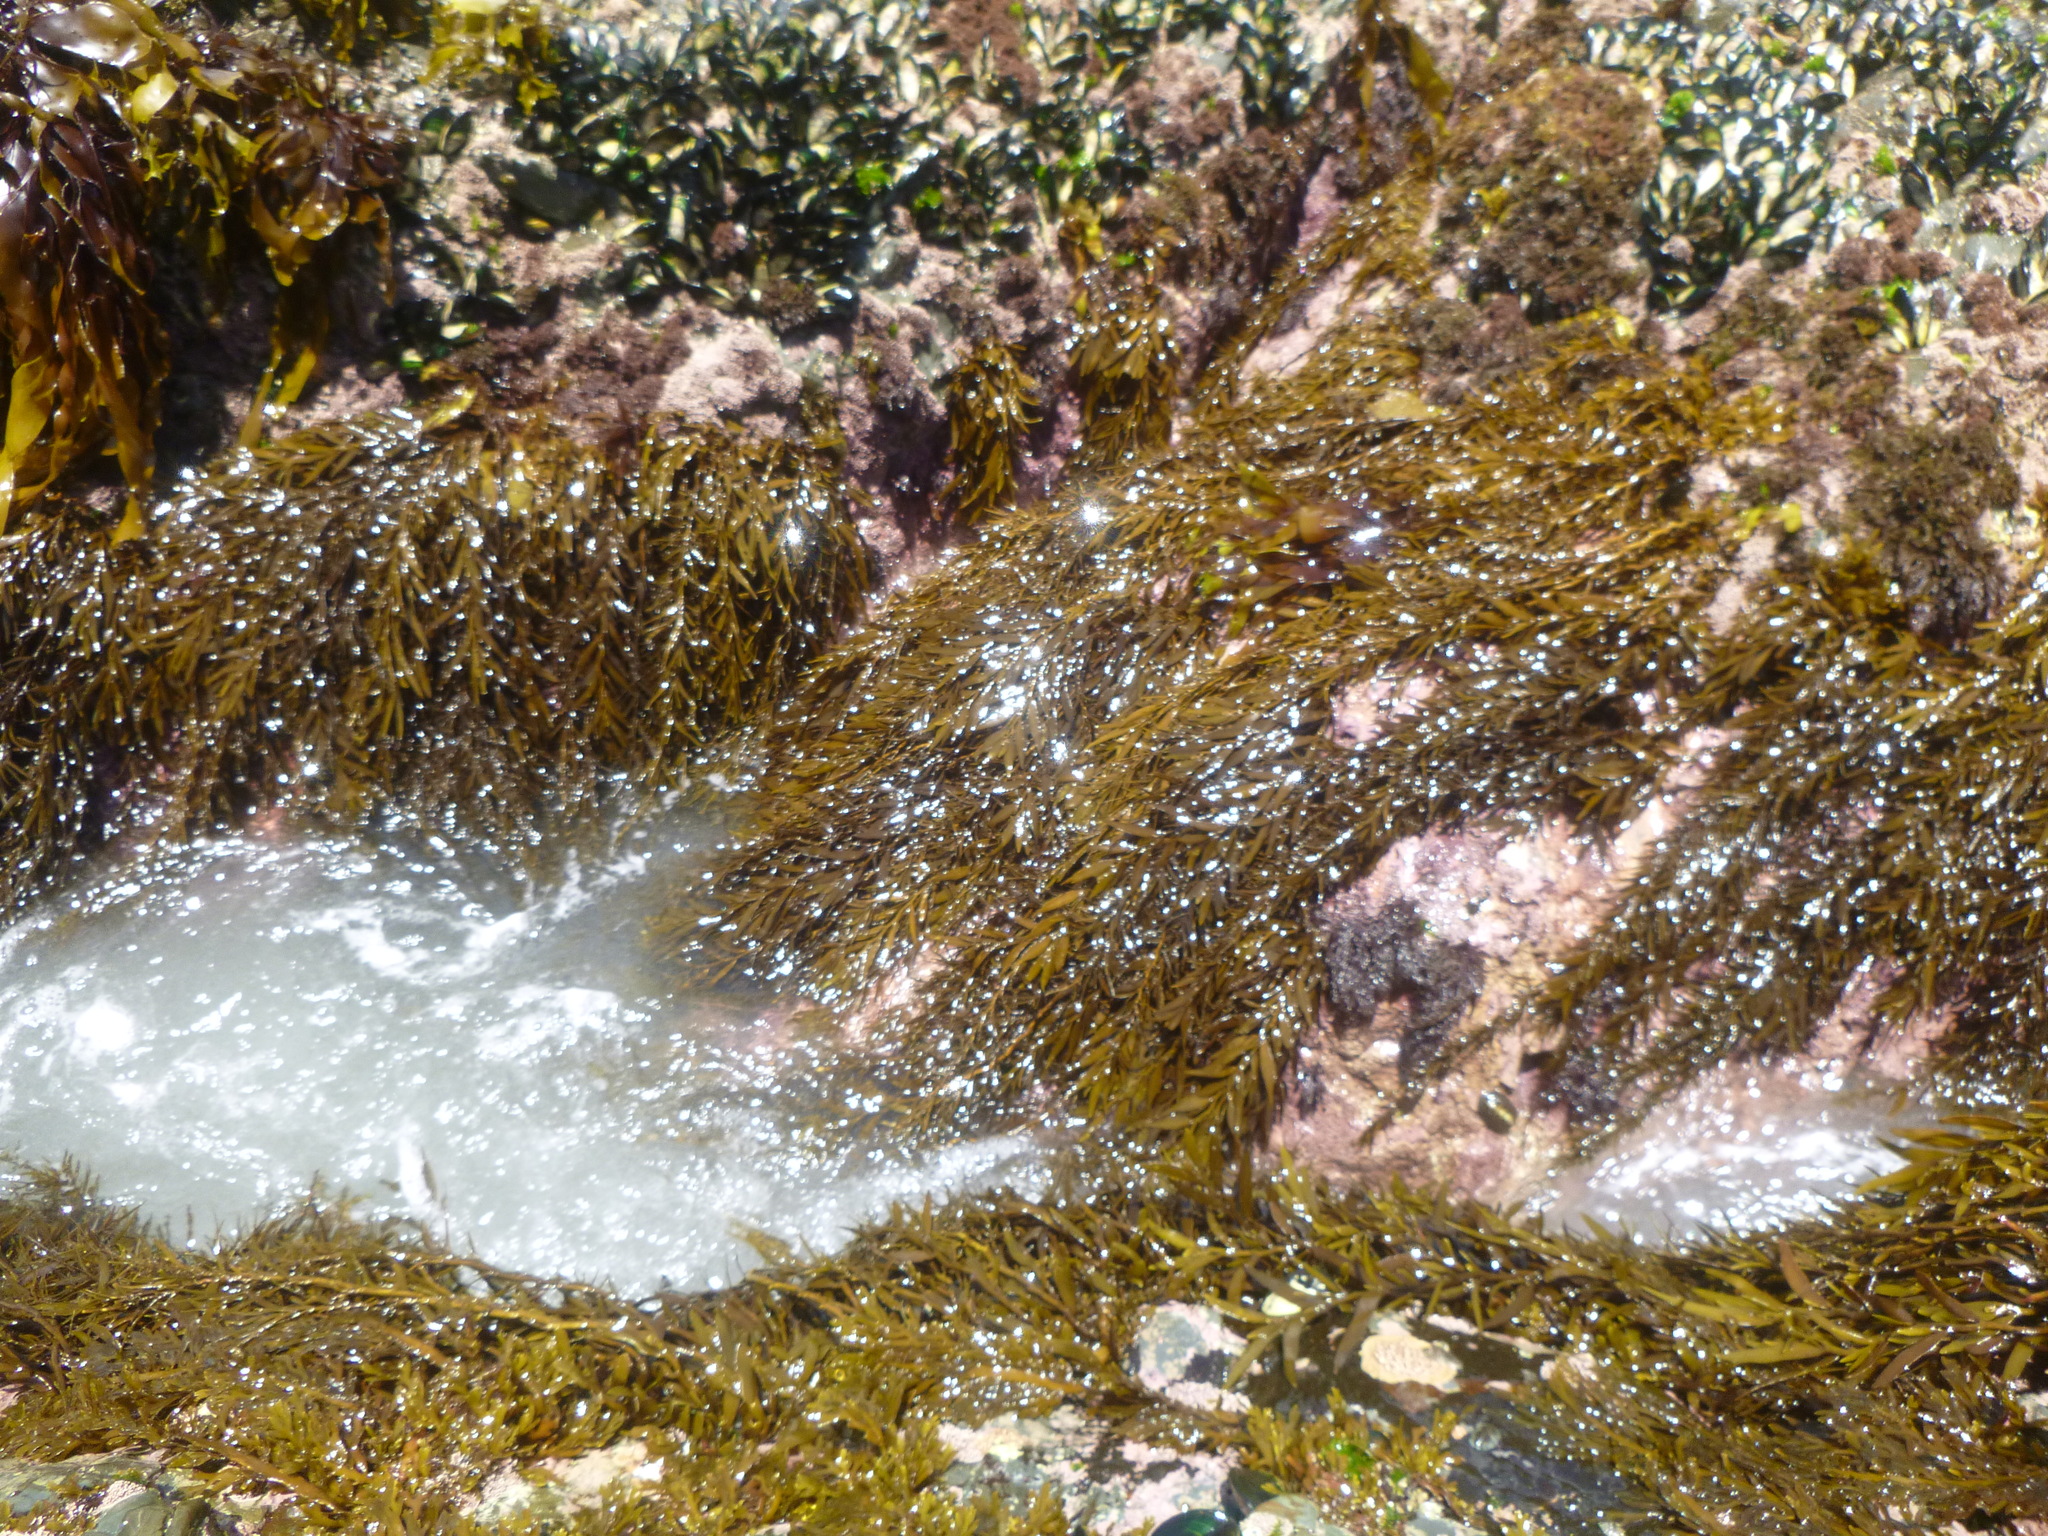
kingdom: Chromista
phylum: Ochrophyta
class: Phaeophyceae
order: Fucales
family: Sargassaceae
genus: Carpophyllum
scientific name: Carpophyllum angustifolium
